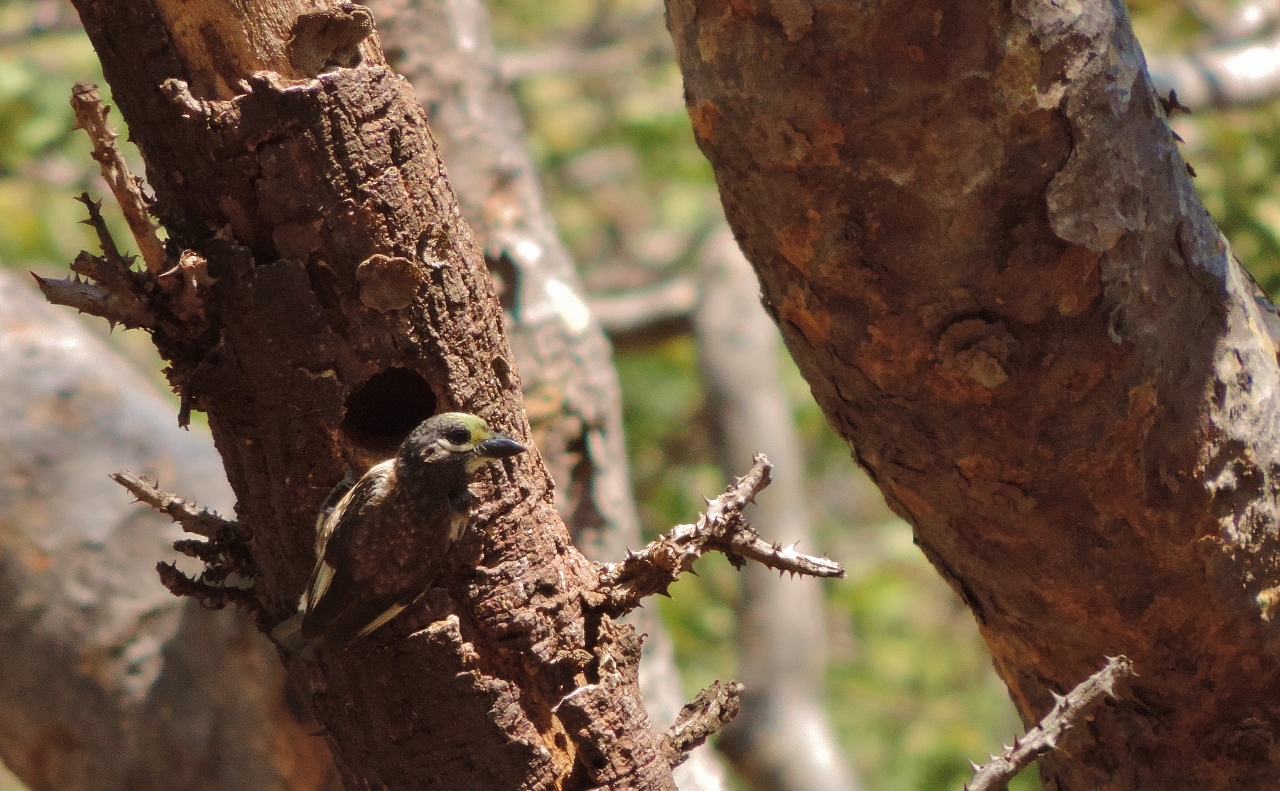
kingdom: Animalia
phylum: Chordata
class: Aves
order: Piciformes
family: Lybiidae
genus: Stactolaema
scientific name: Stactolaema whytii
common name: Whyte's barbet
